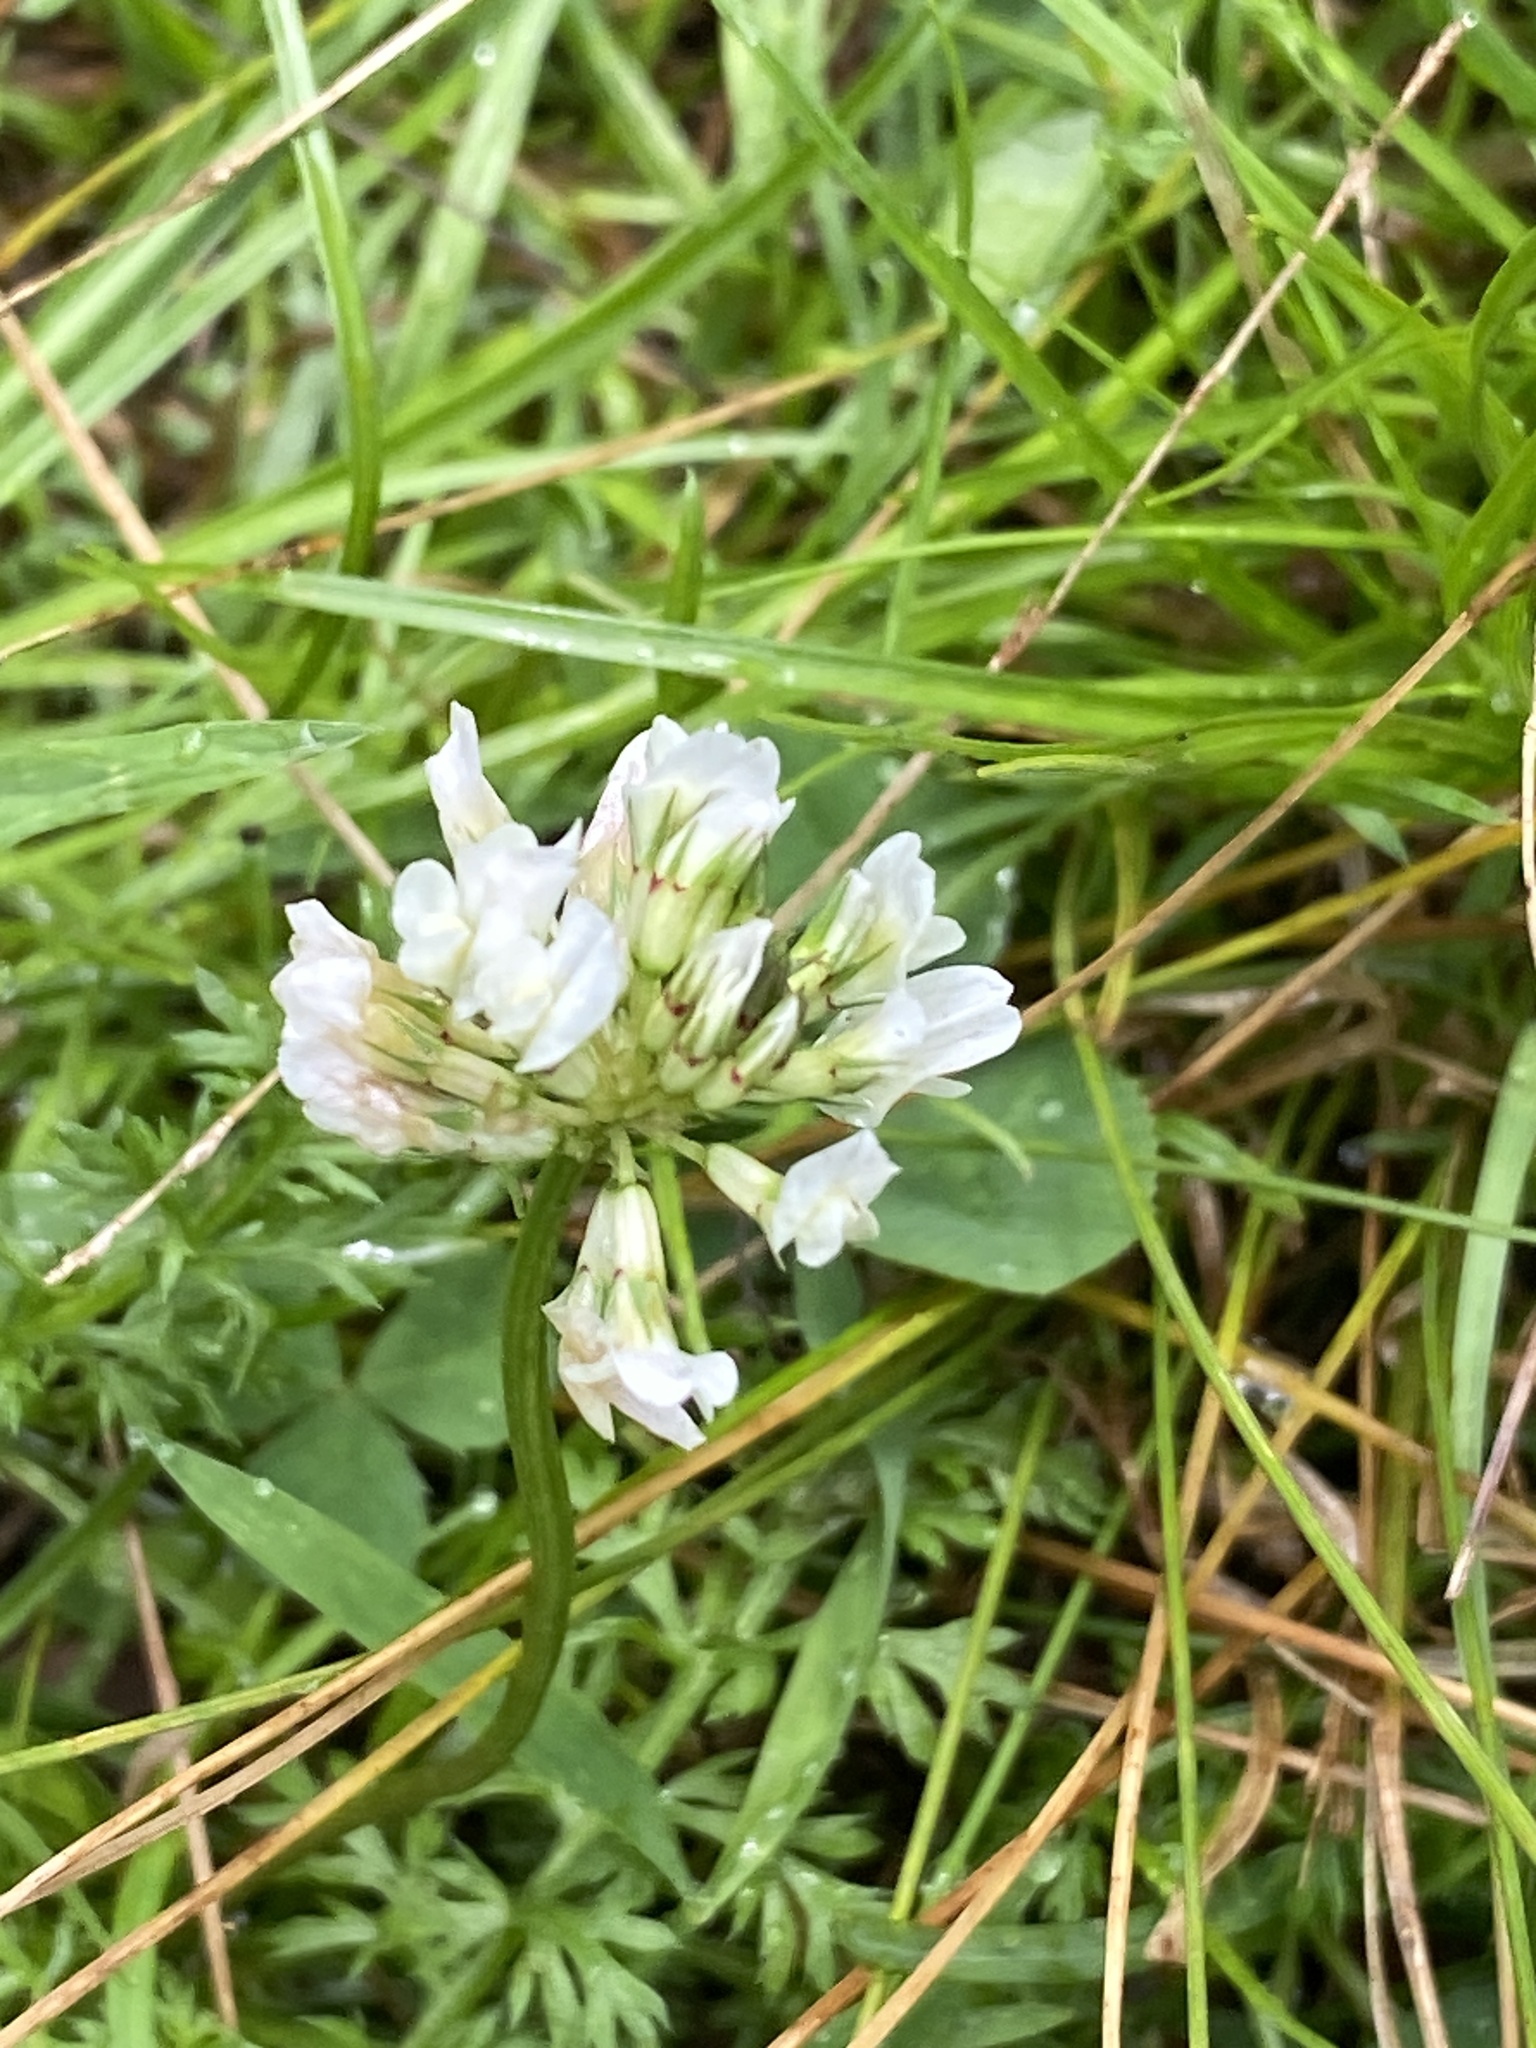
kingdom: Plantae
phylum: Tracheophyta
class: Magnoliopsida
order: Fabales
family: Fabaceae
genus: Trifolium
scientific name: Trifolium repens
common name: White clover
